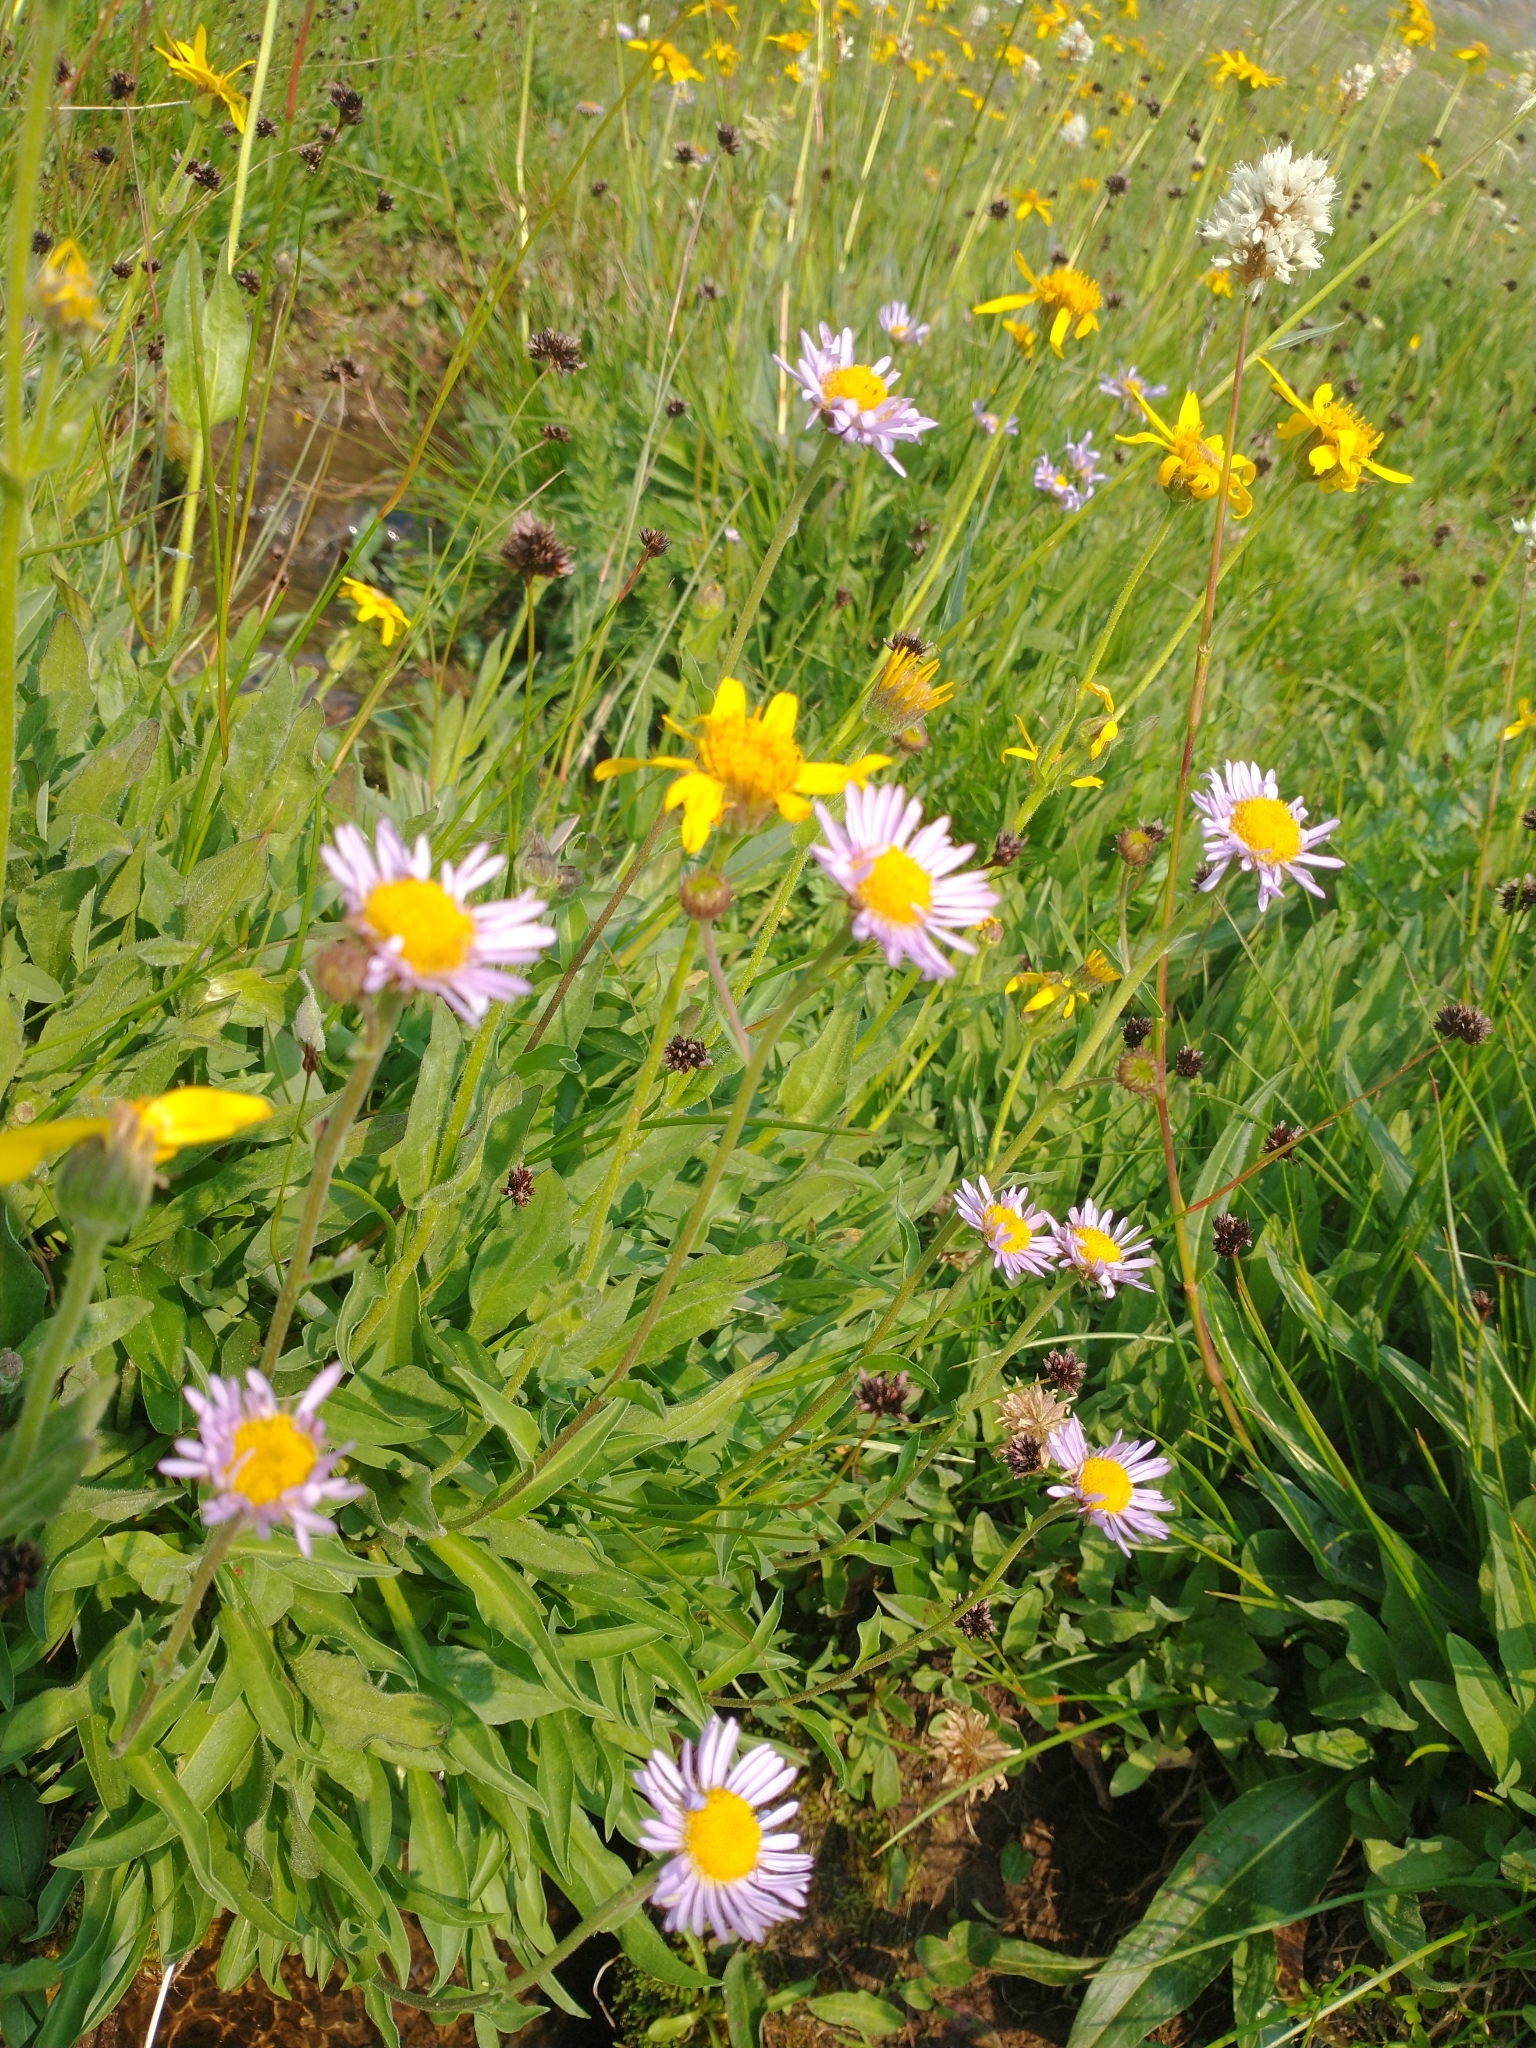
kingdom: Plantae
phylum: Tracheophyta
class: Magnoliopsida
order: Asterales
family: Asteraceae
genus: Erigeron
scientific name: Erigeron glacialis
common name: Subalpine fleabane
